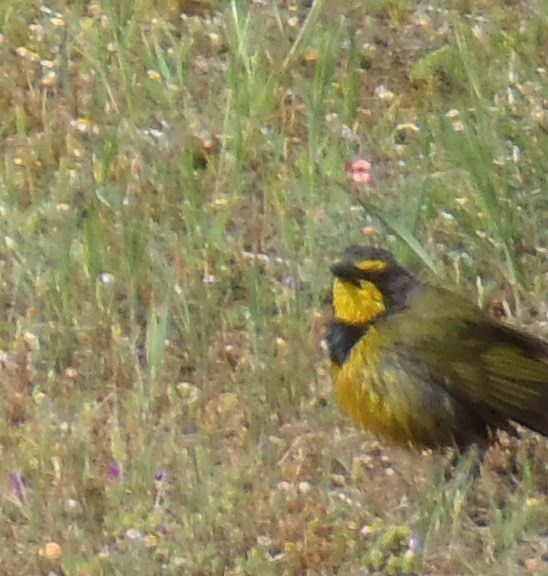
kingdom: Animalia
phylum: Chordata
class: Aves
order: Passeriformes
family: Malaconotidae
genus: Telophorus
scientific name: Telophorus zeylonus
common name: Bokmakierie
